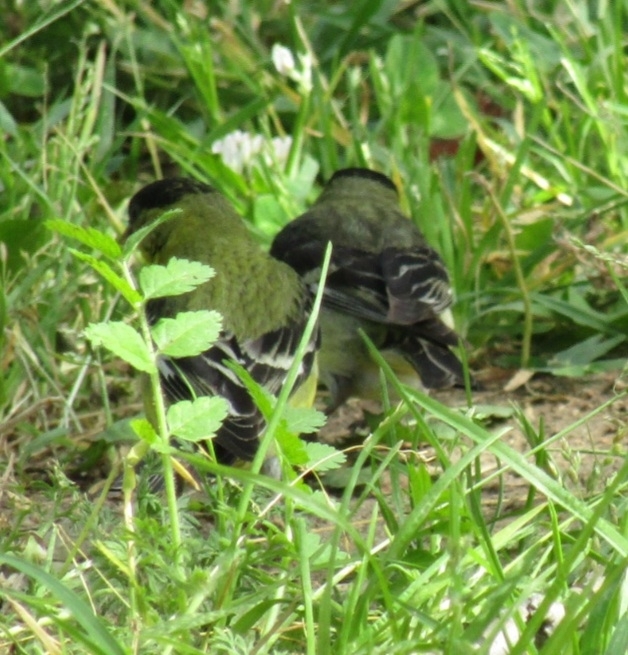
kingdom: Animalia
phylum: Chordata
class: Aves
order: Passeriformes
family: Fringillidae
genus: Spinus
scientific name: Spinus psaltria
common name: Lesser goldfinch
